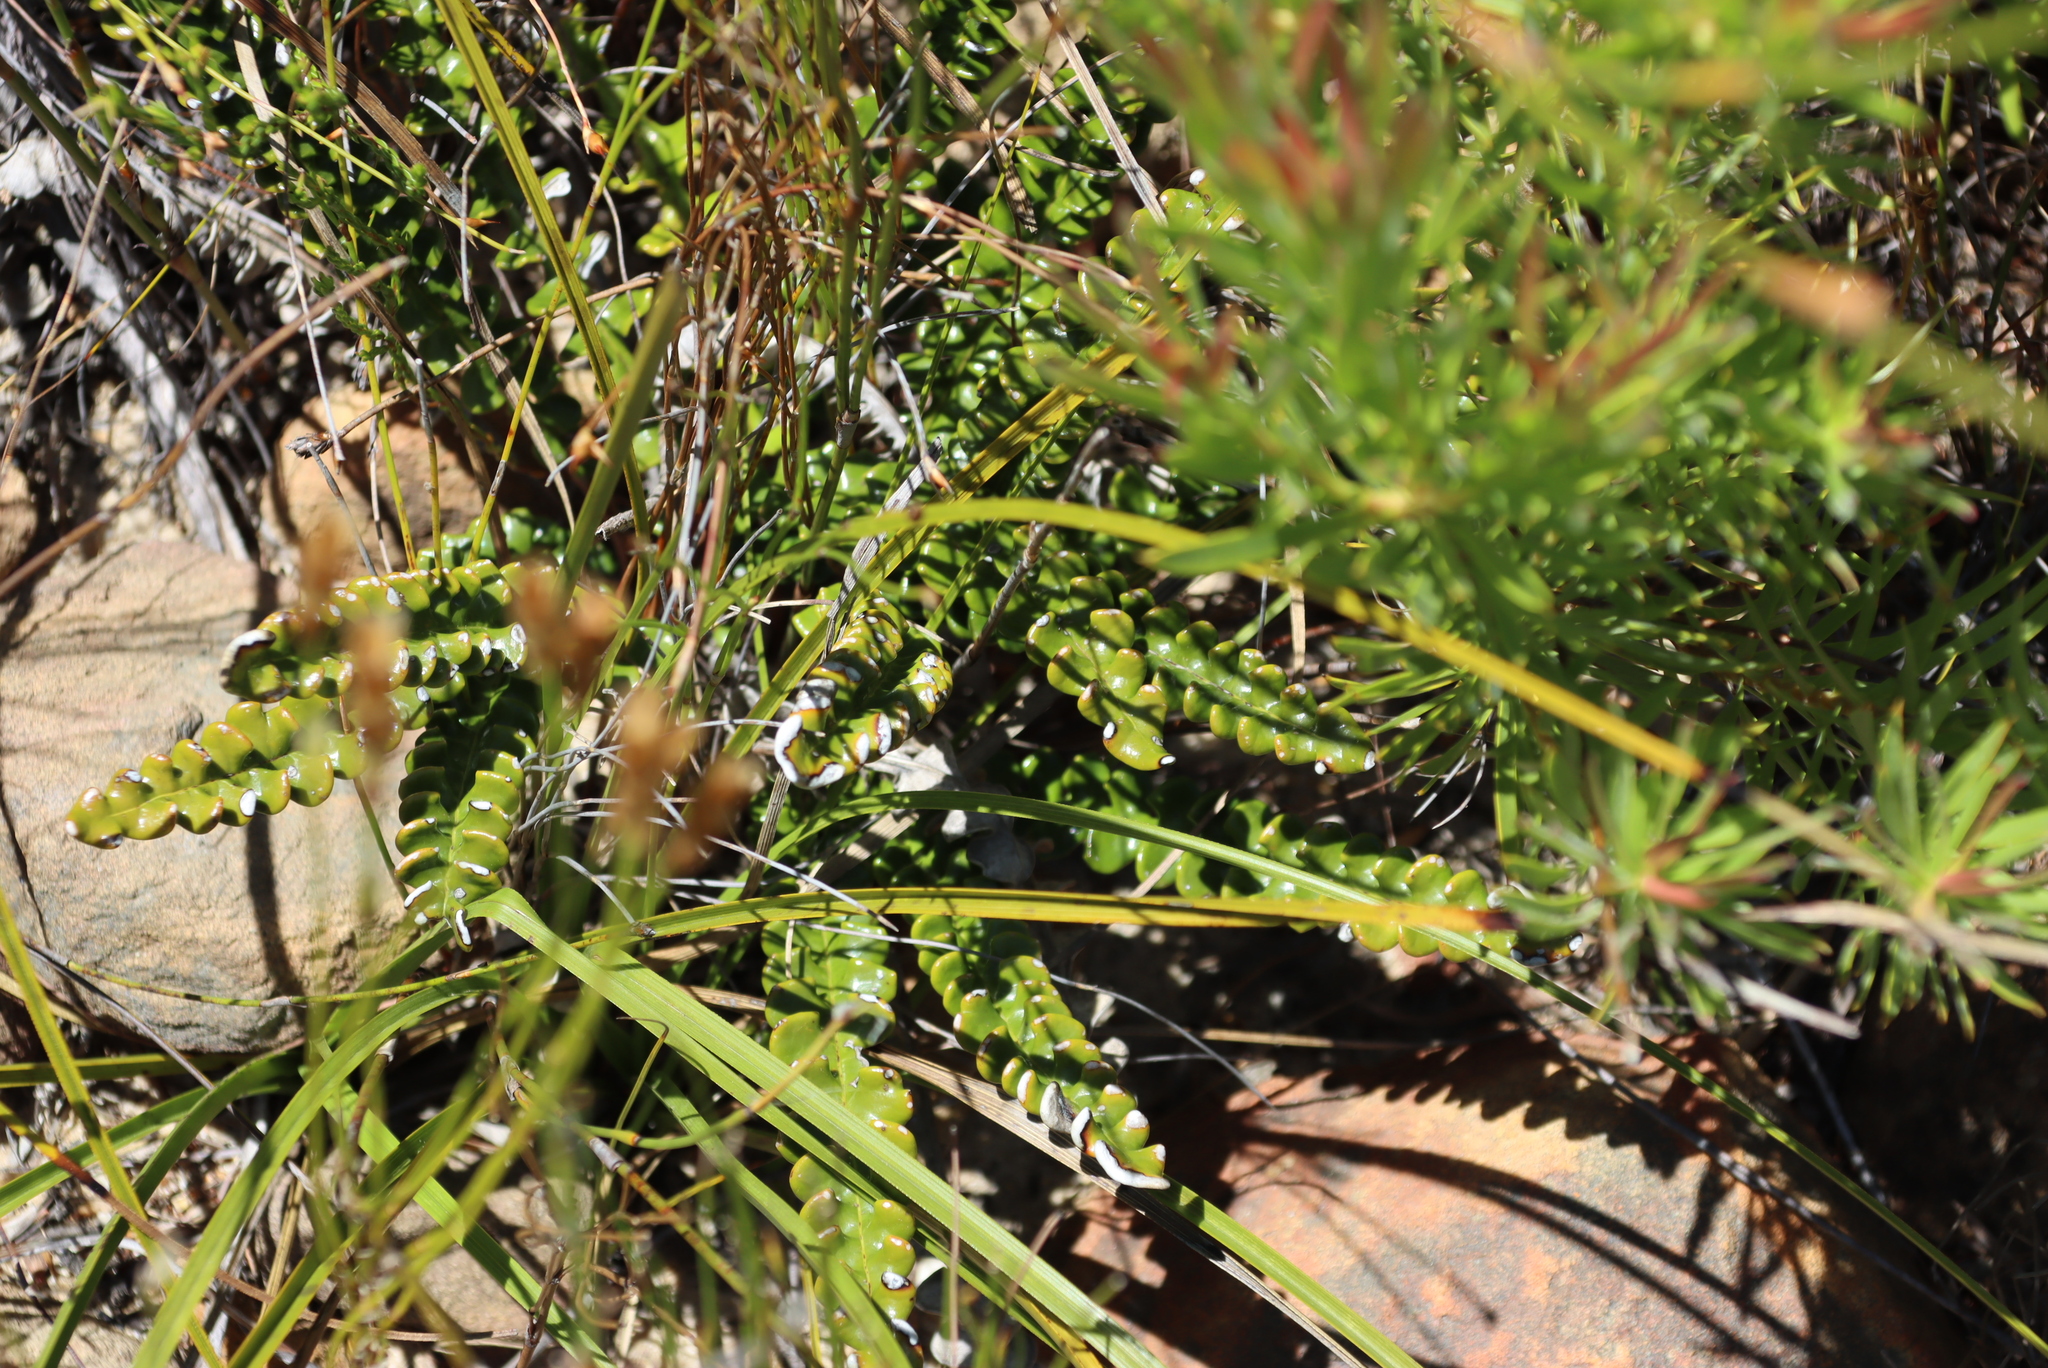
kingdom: Plantae
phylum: Tracheophyta
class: Magnoliopsida
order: Asterales
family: Asteraceae
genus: Gerbera
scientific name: Gerbera linnaei
